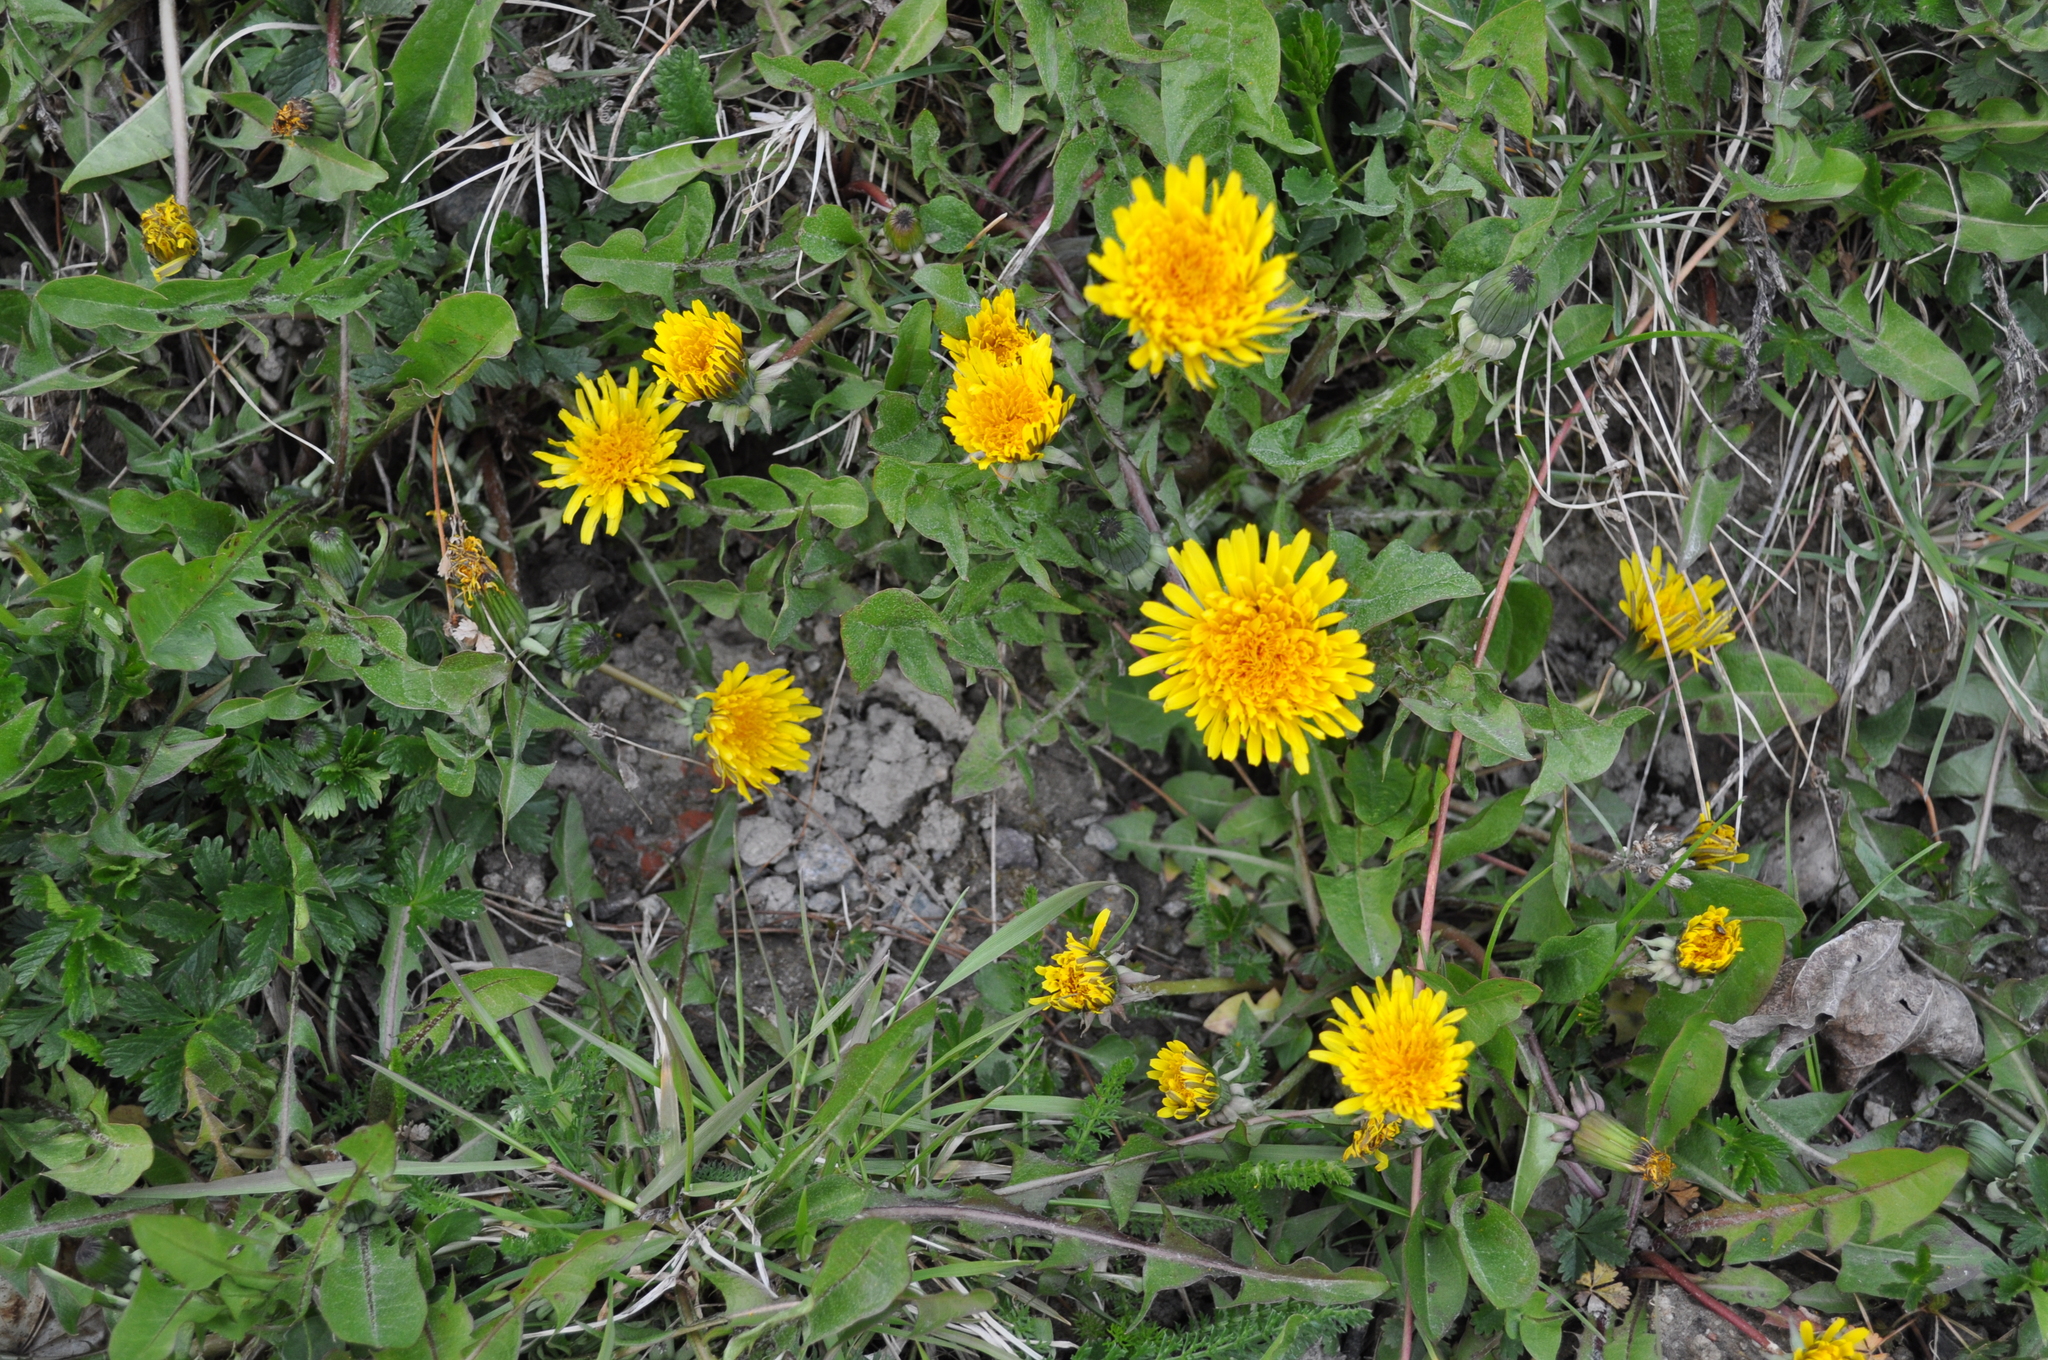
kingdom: Plantae
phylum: Tracheophyta
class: Magnoliopsida
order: Asterales
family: Asteraceae
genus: Taraxacum
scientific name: Taraxacum officinale
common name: Common dandelion
